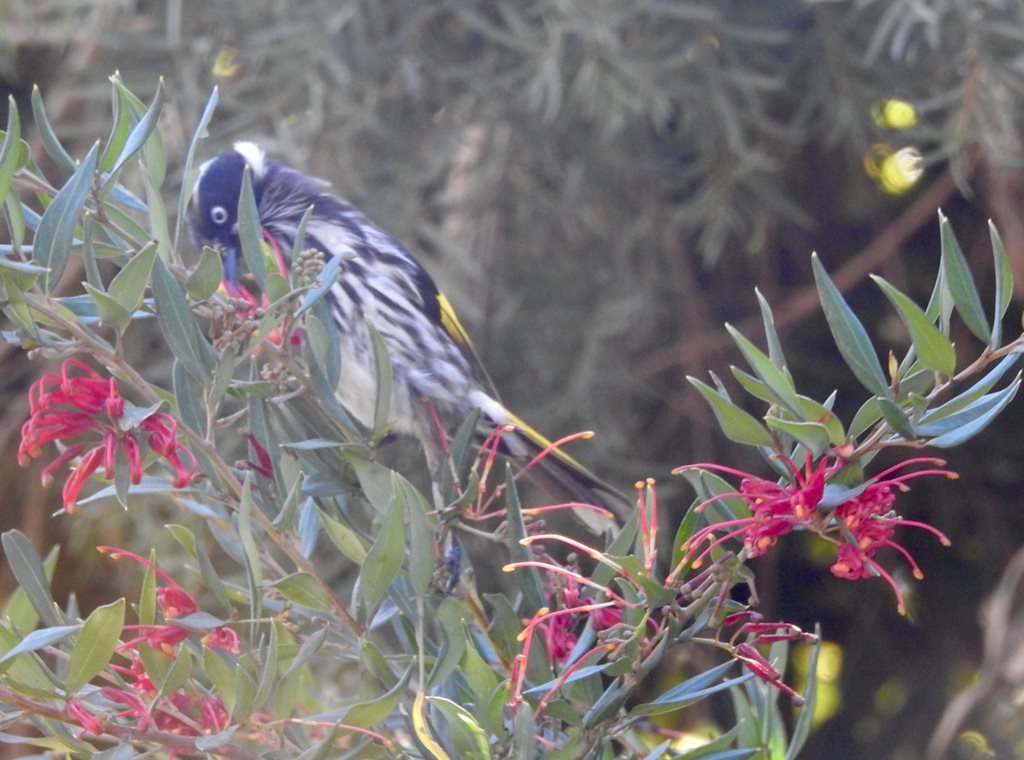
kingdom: Animalia
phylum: Chordata
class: Aves
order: Passeriformes
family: Meliphagidae
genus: Phylidonyris
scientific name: Phylidonyris novaehollandiae
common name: New holland honeyeater
